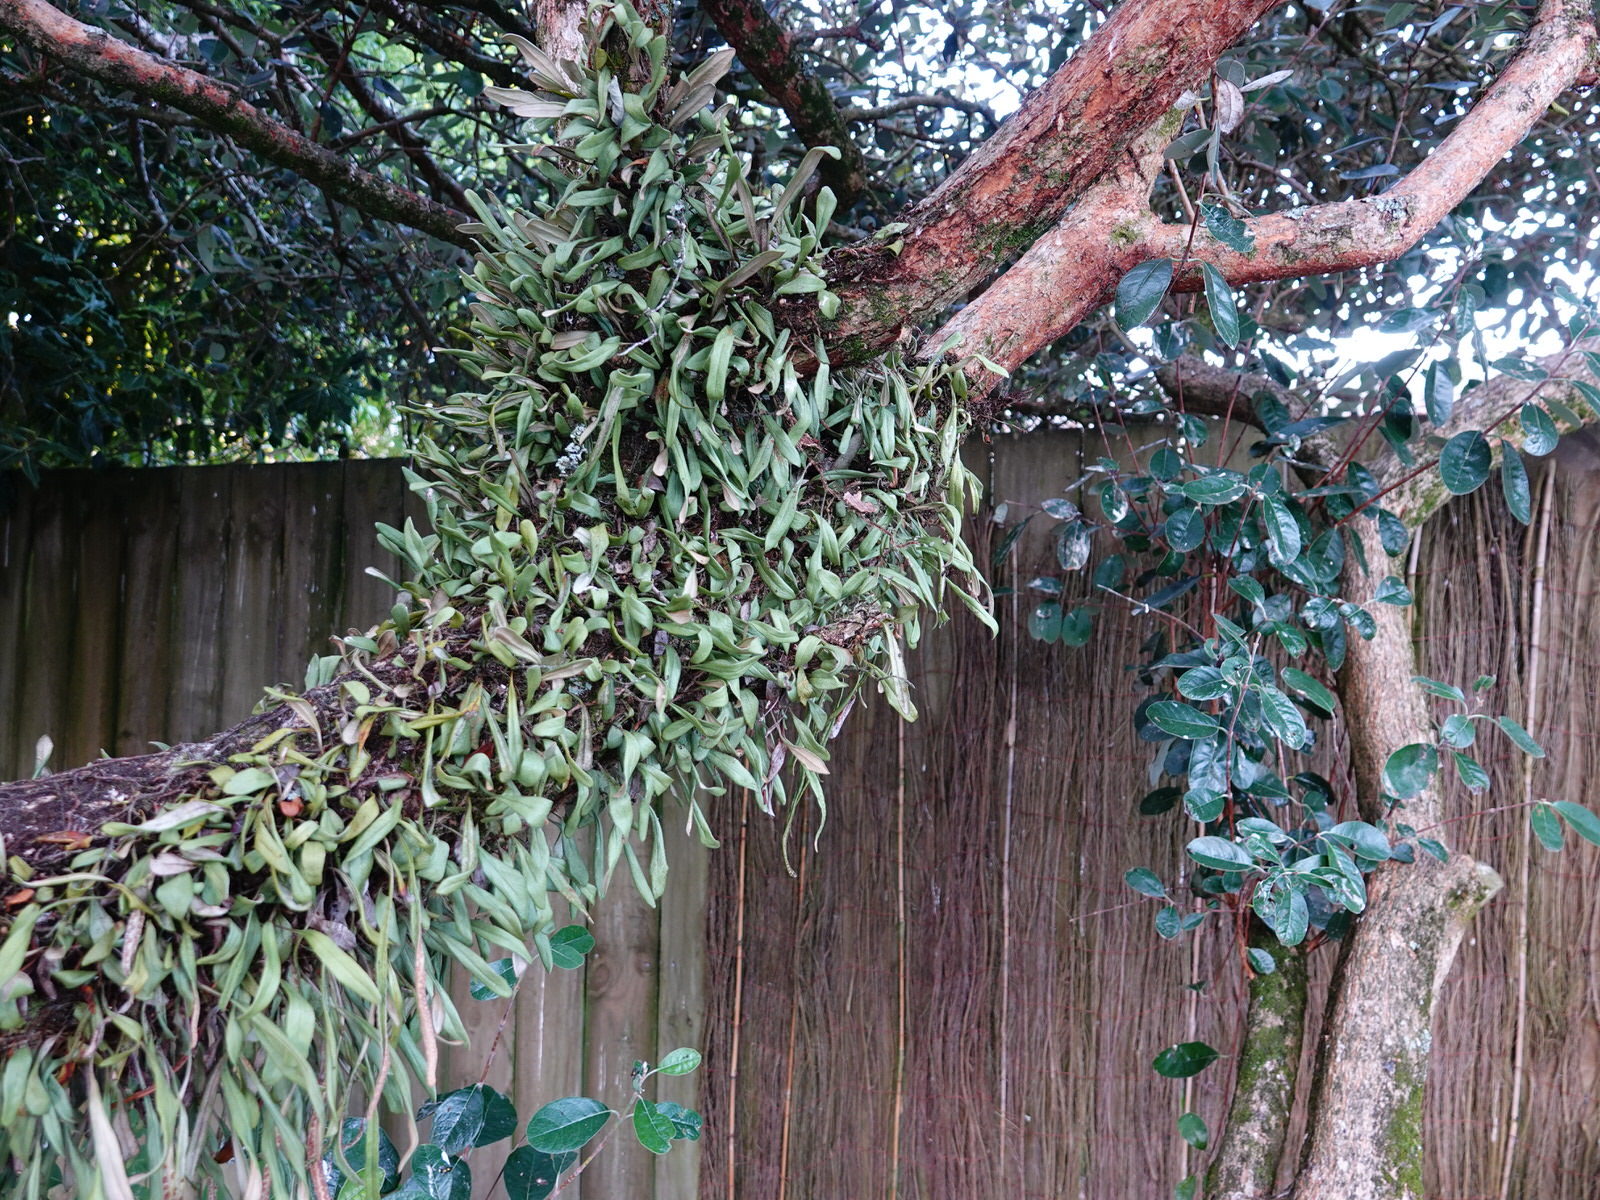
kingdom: Plantae
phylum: Tracheophyta
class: Polypodiopsida
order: Polypodiales
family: Polypodiaceae
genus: Pyrrosia
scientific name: Pyrrosia eleagnifolia
